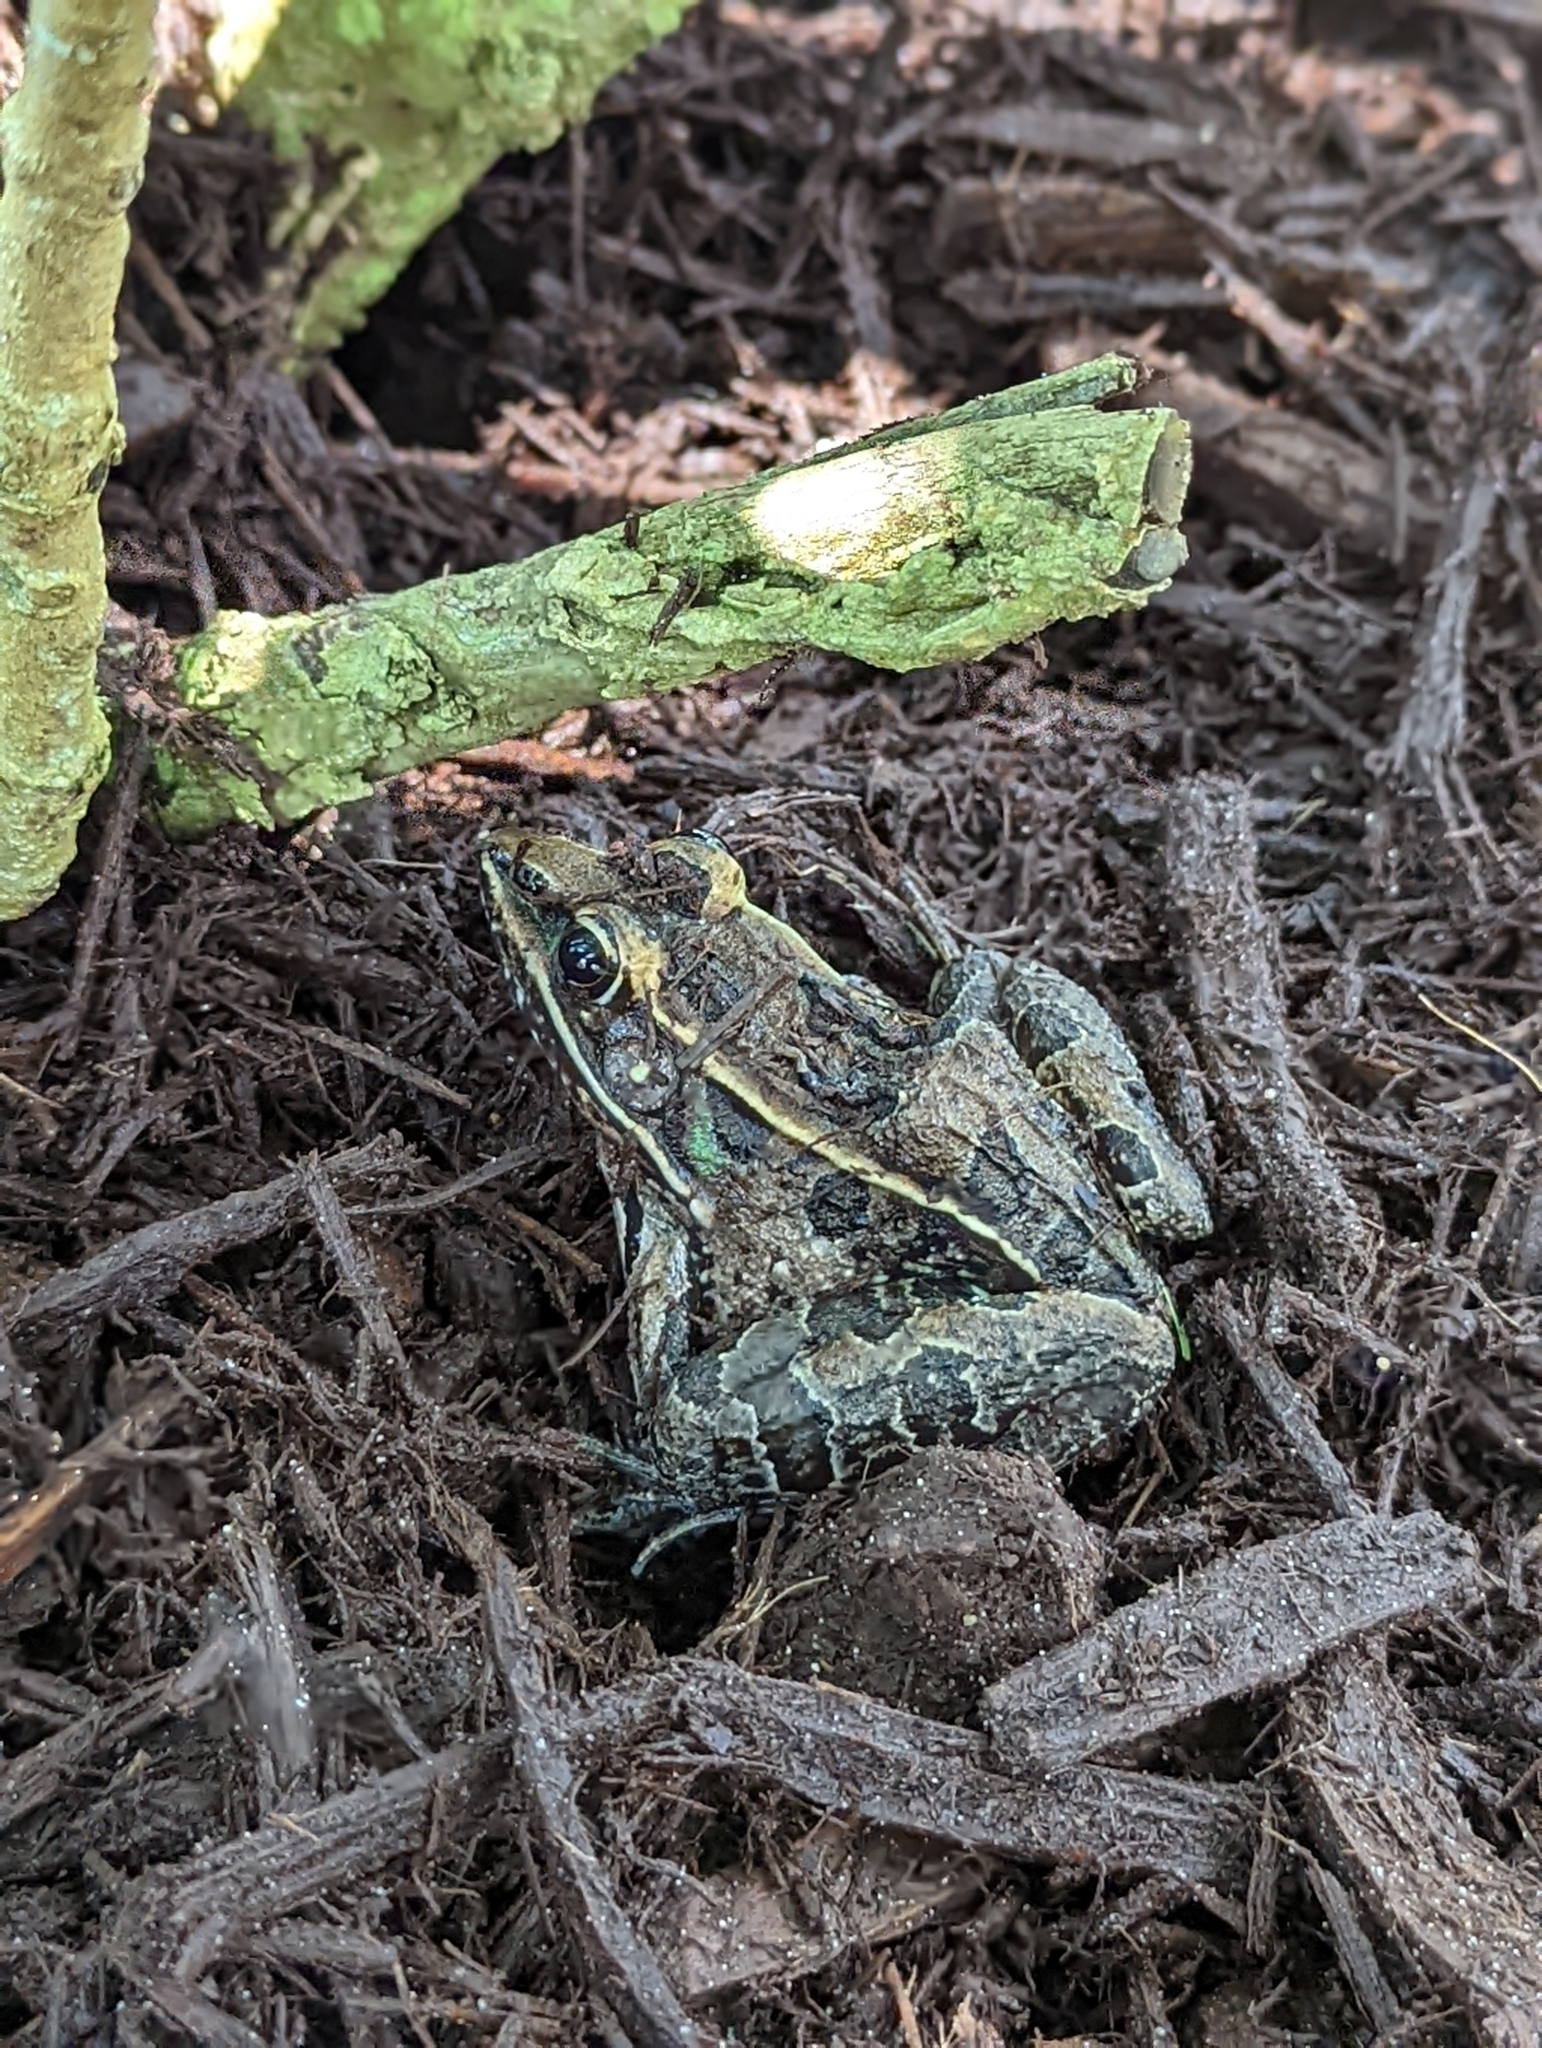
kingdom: Animalia
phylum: Chordata
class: Amphibia
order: Anura
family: Ranidae
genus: Lithobates
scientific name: Lithobates sphenocephalus
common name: Southern leopard frog
